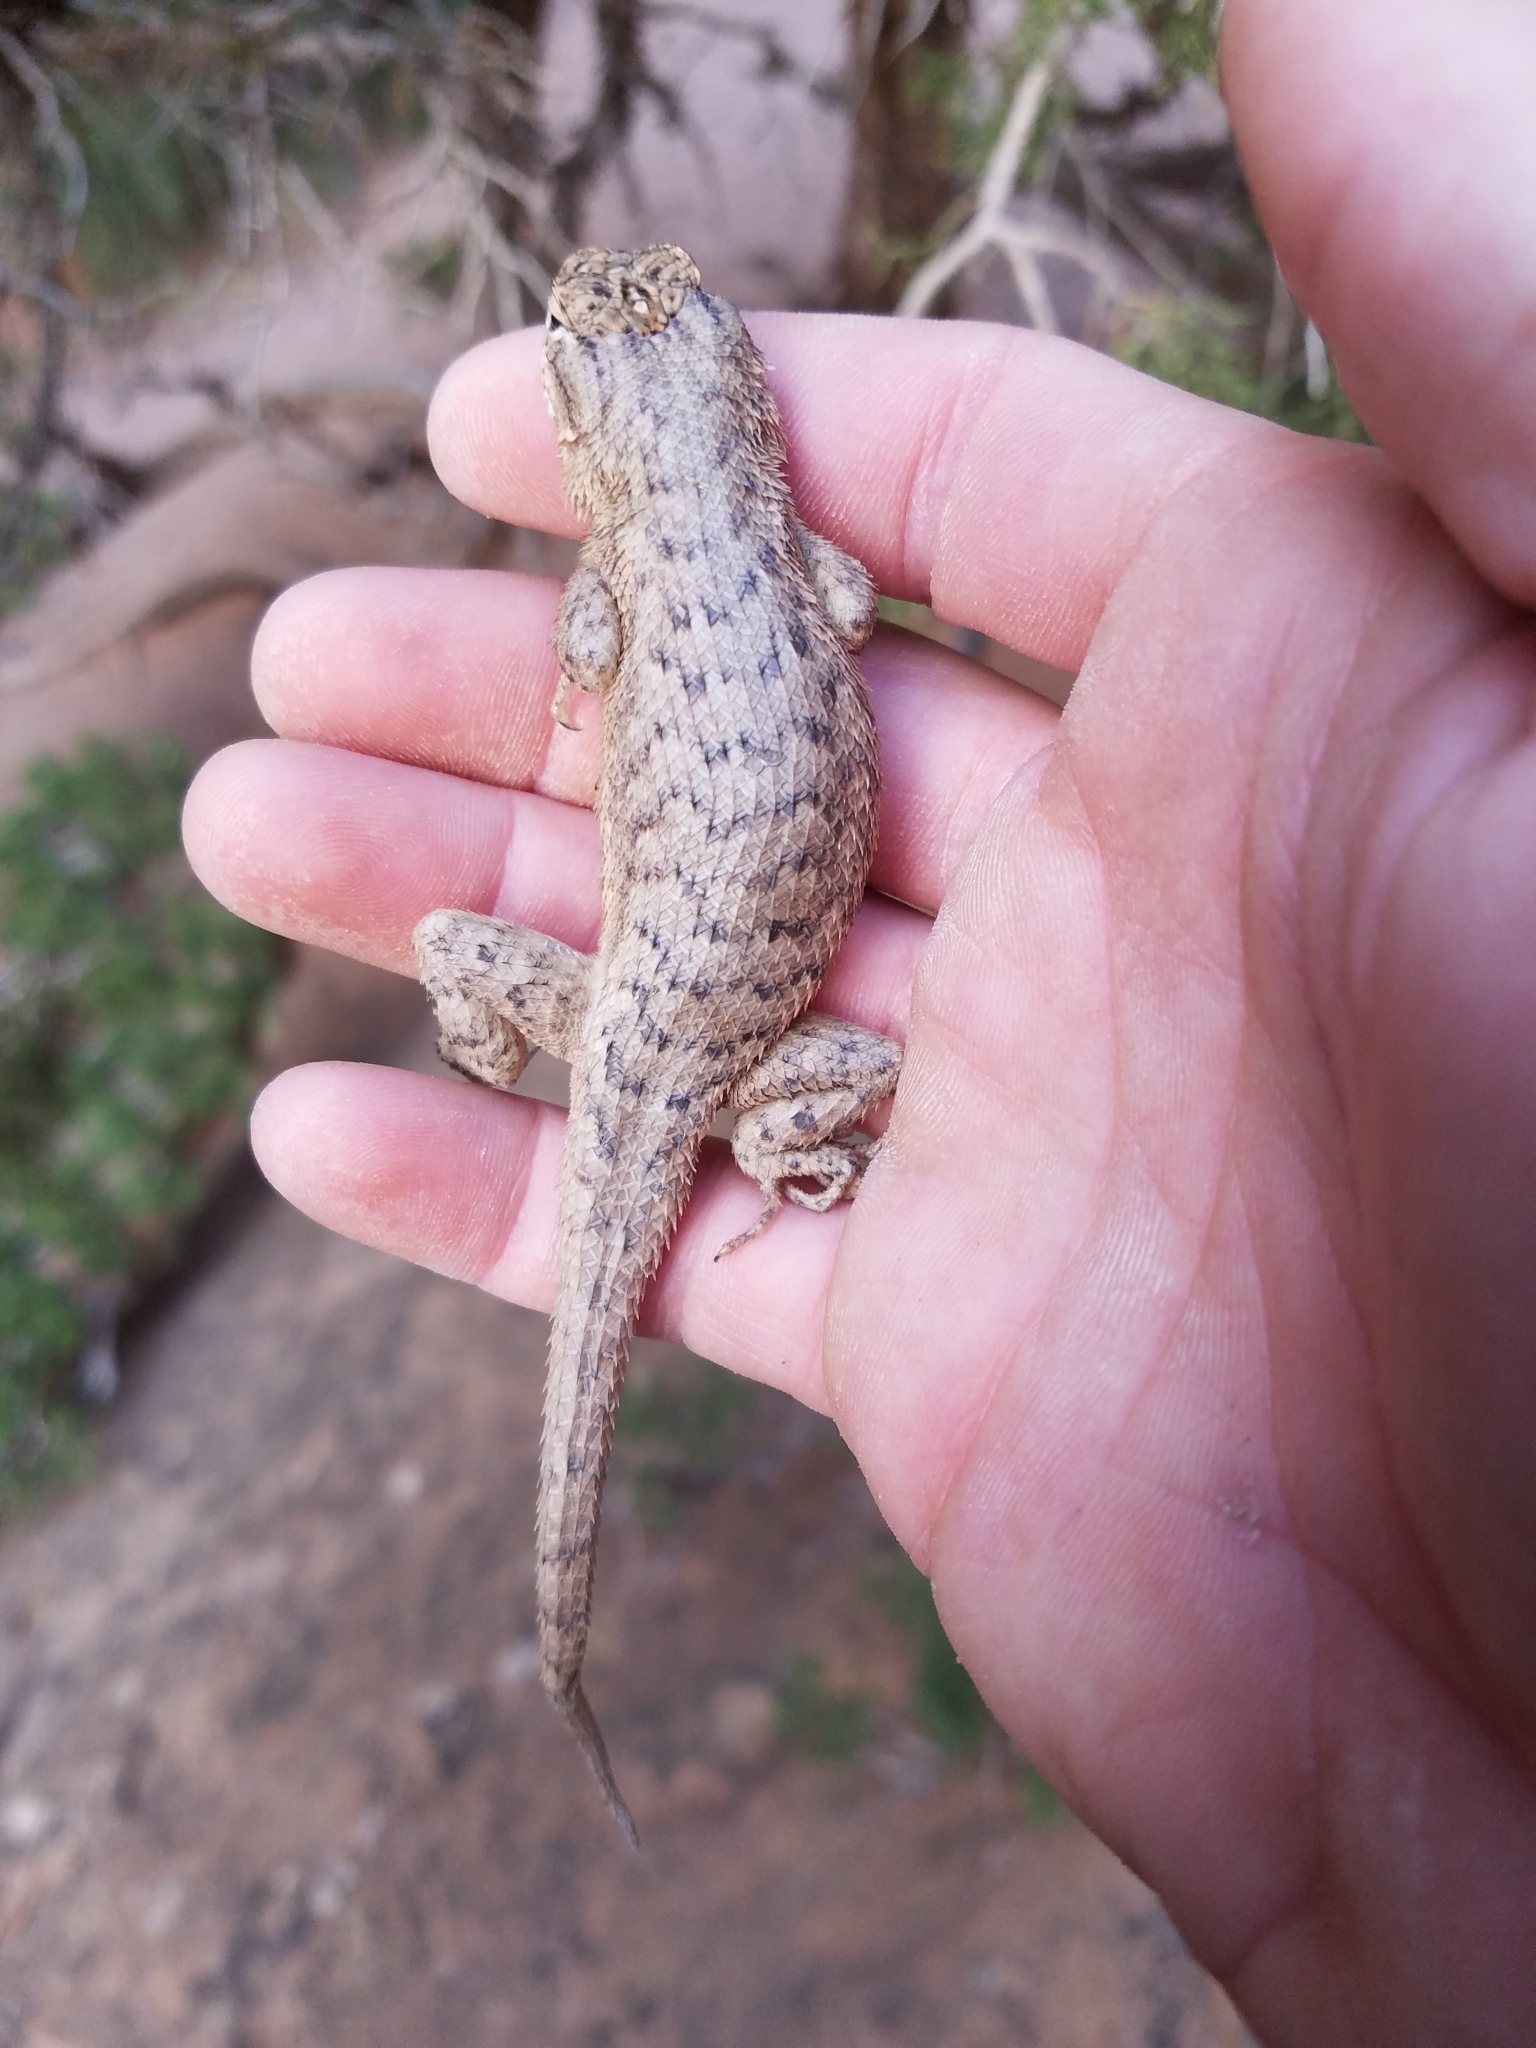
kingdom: Animalia
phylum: Chordata
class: Squamata
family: Phrynosomatidae
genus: Sceloporus
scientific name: Sceloporus tristichus
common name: Plateau fence lizard
